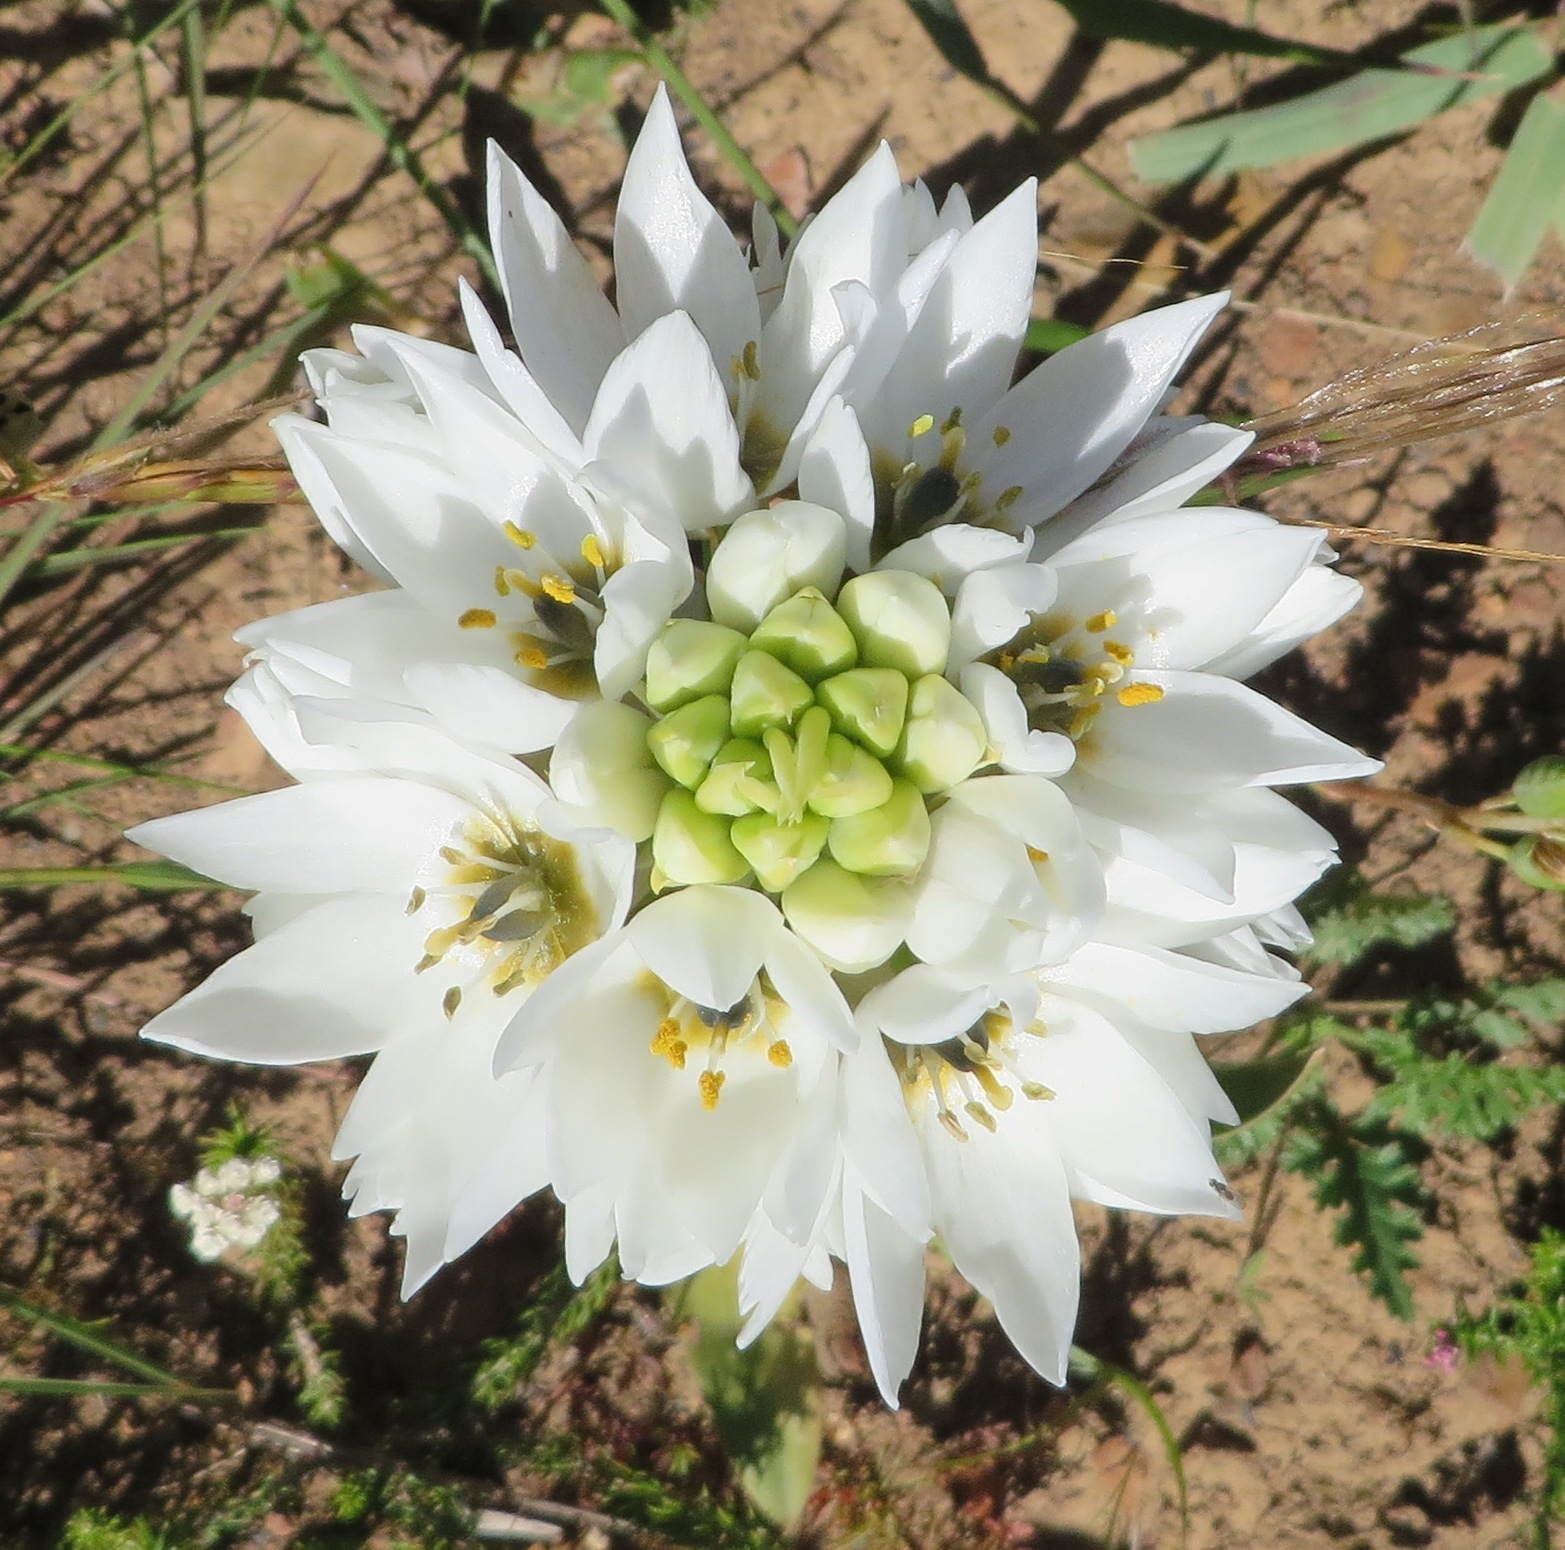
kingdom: Plantae
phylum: Tracheophyta
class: Liliopsida
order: Asparagales
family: Asparagaceae
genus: Ornithogalum
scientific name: Ornithogalum thyrsoides
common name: Chincherinchee
